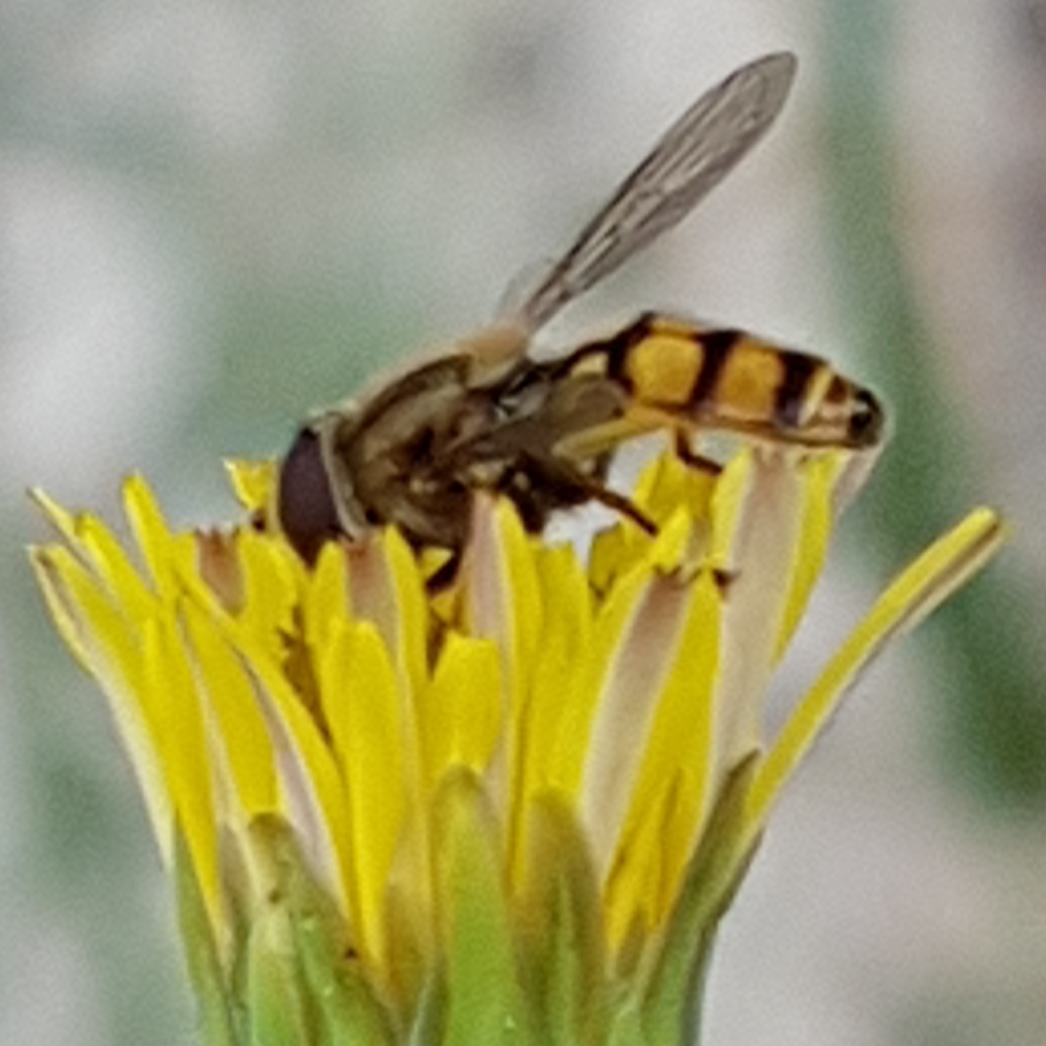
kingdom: Animalia
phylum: Arthropoda
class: Insecta
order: Diptera
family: Syrphidae
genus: Eupeodes
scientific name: Eupeodes corollae
